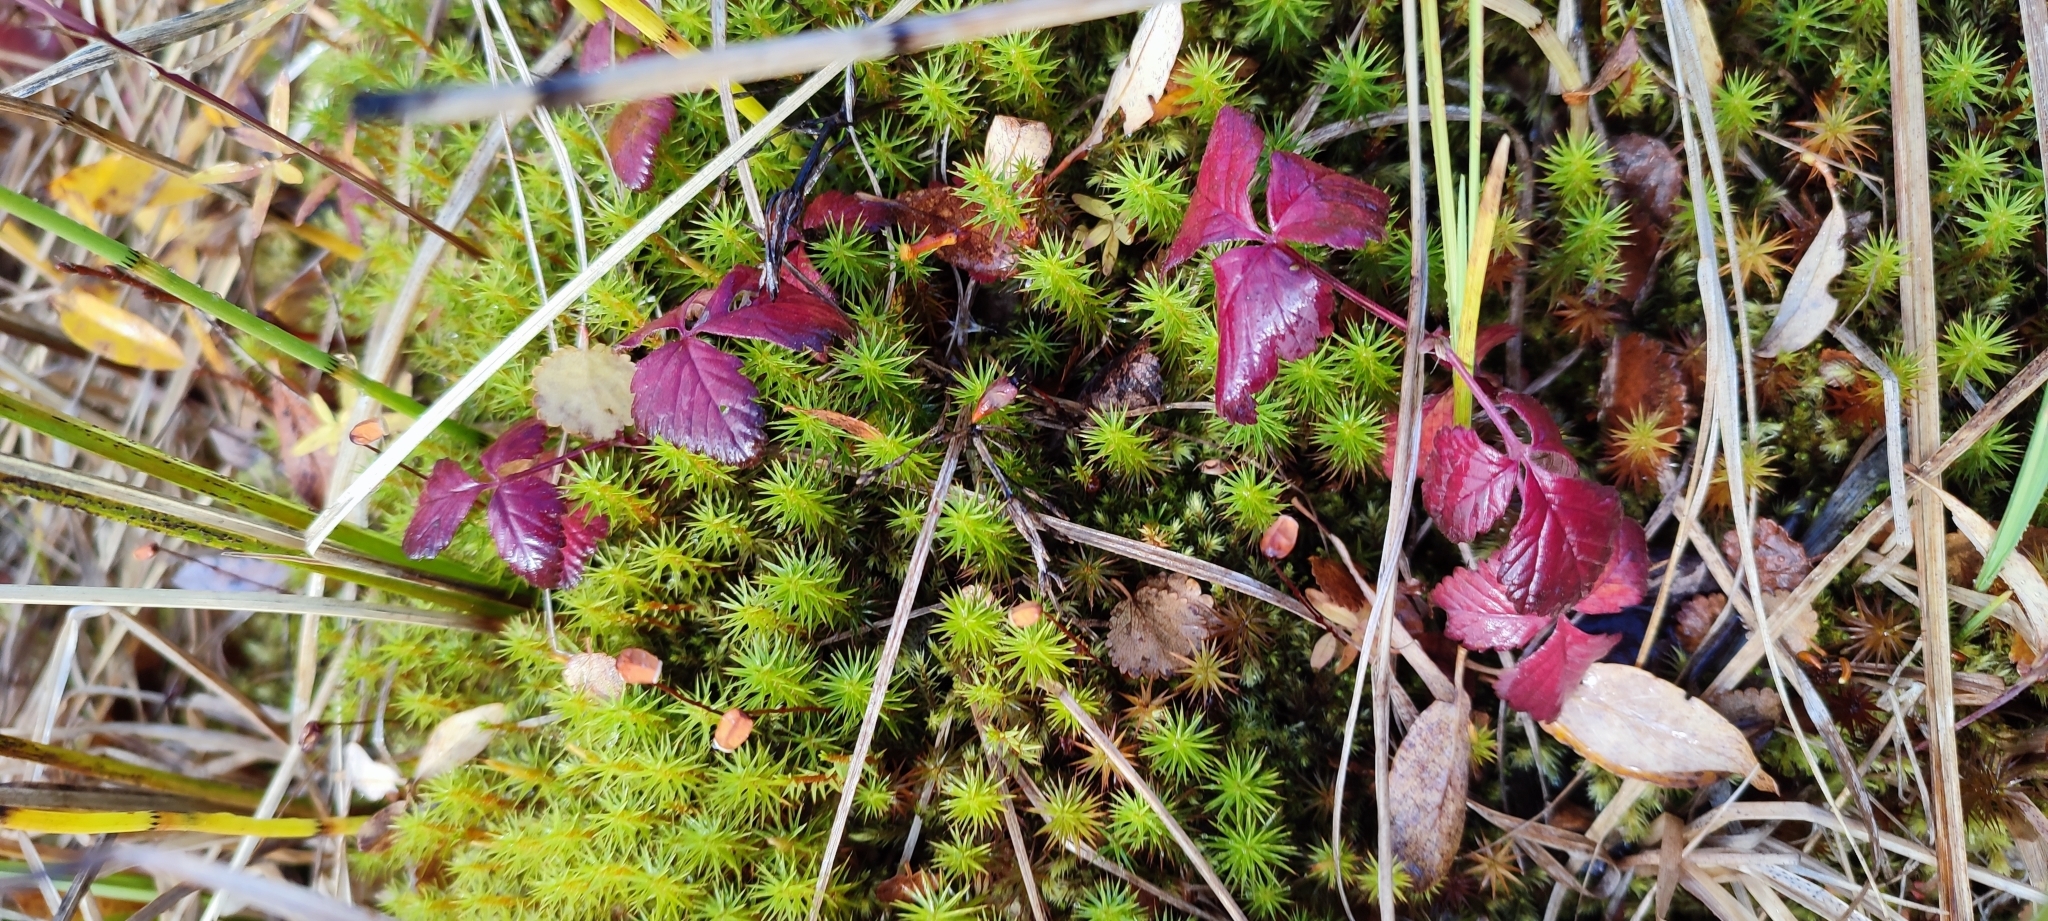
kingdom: Plantae
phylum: Tracheophyta
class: Magnoliopsida
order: Rosales
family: Rosaceae
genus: Rubus
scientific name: Rubus arcticus
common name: Arctic bramble
